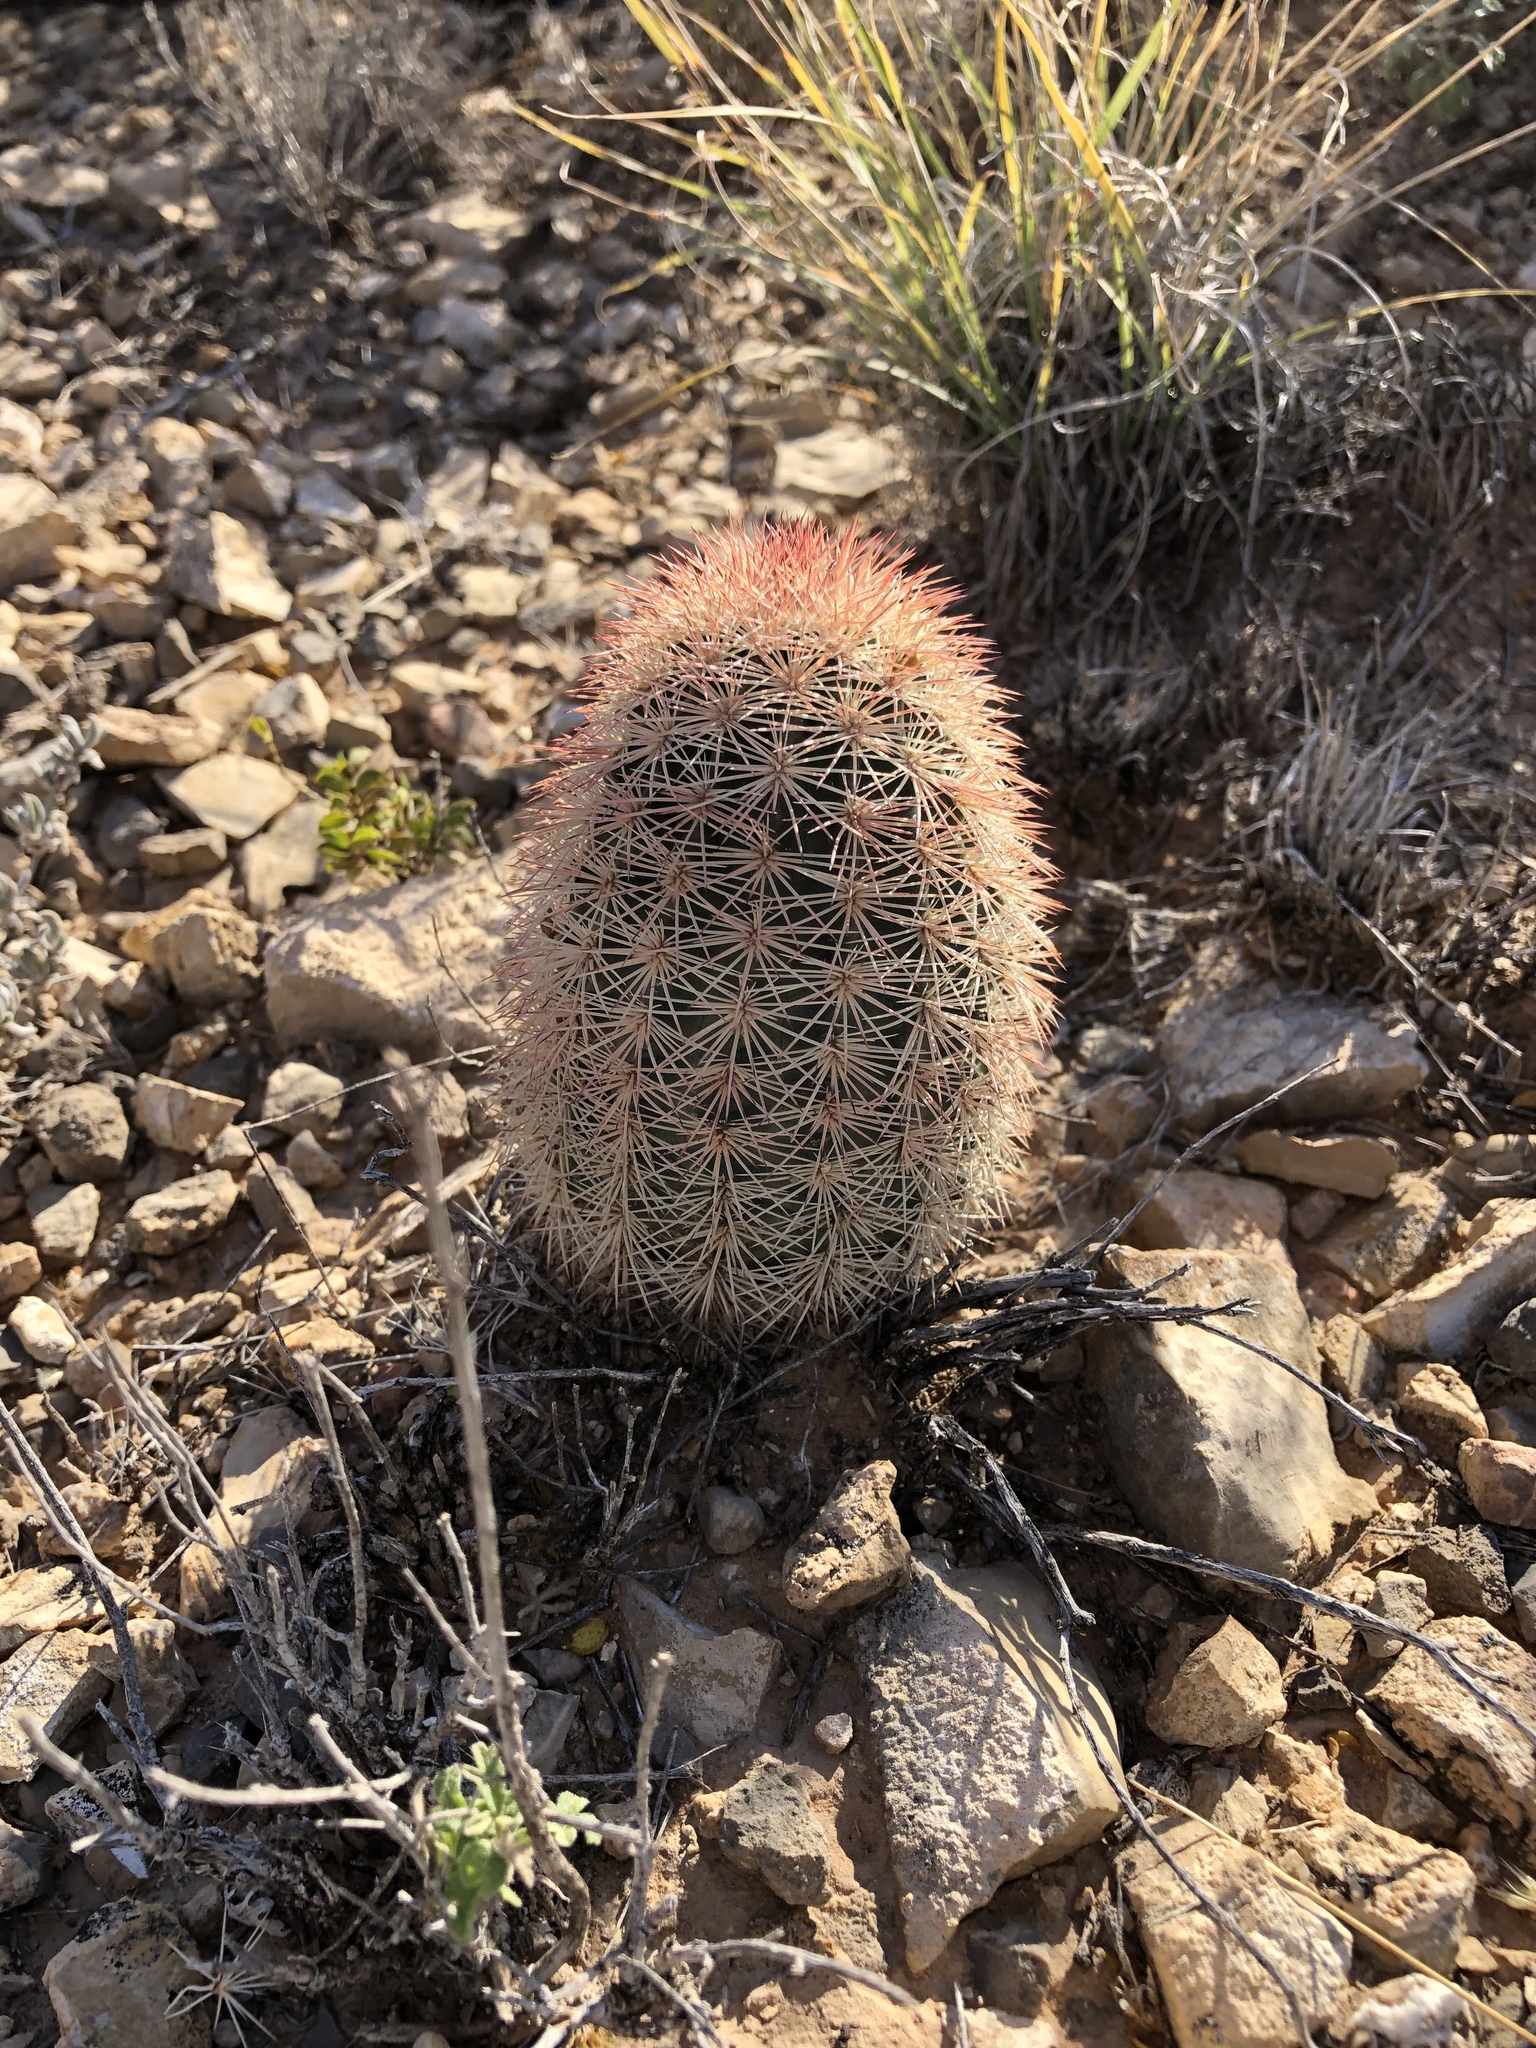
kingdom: Plantae
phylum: Tracheophyta
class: Magnoliopsida
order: Caryophyllales
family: Cactaceae
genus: Echinocereus
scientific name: Echinocereus dasyacanthus
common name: Spiny hedgehog cactus
